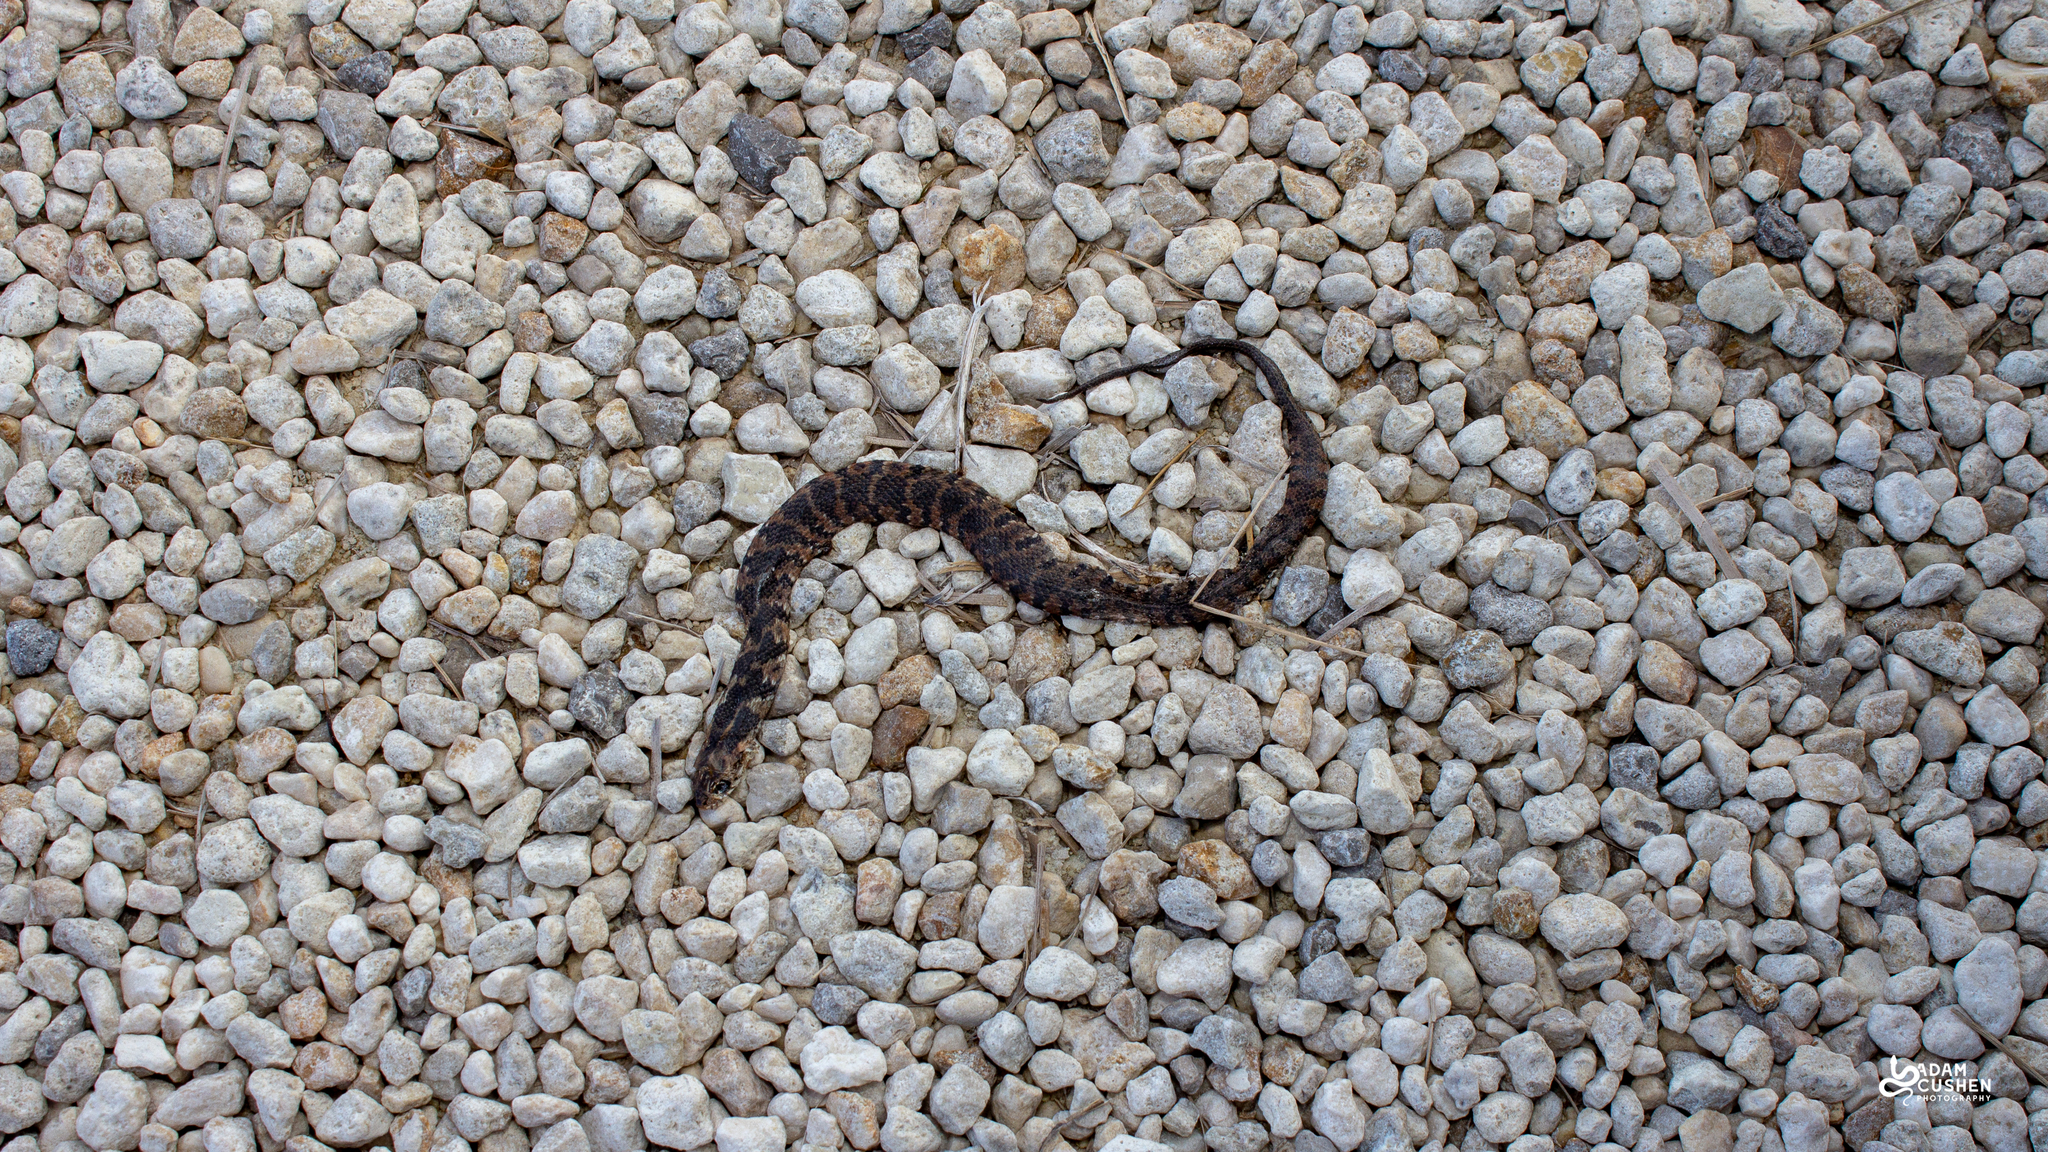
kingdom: Animalia
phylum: Chordata
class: Squamata
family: Colubridae
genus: Nerodia
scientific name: Nerodia fasciata
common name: Southern water snake
